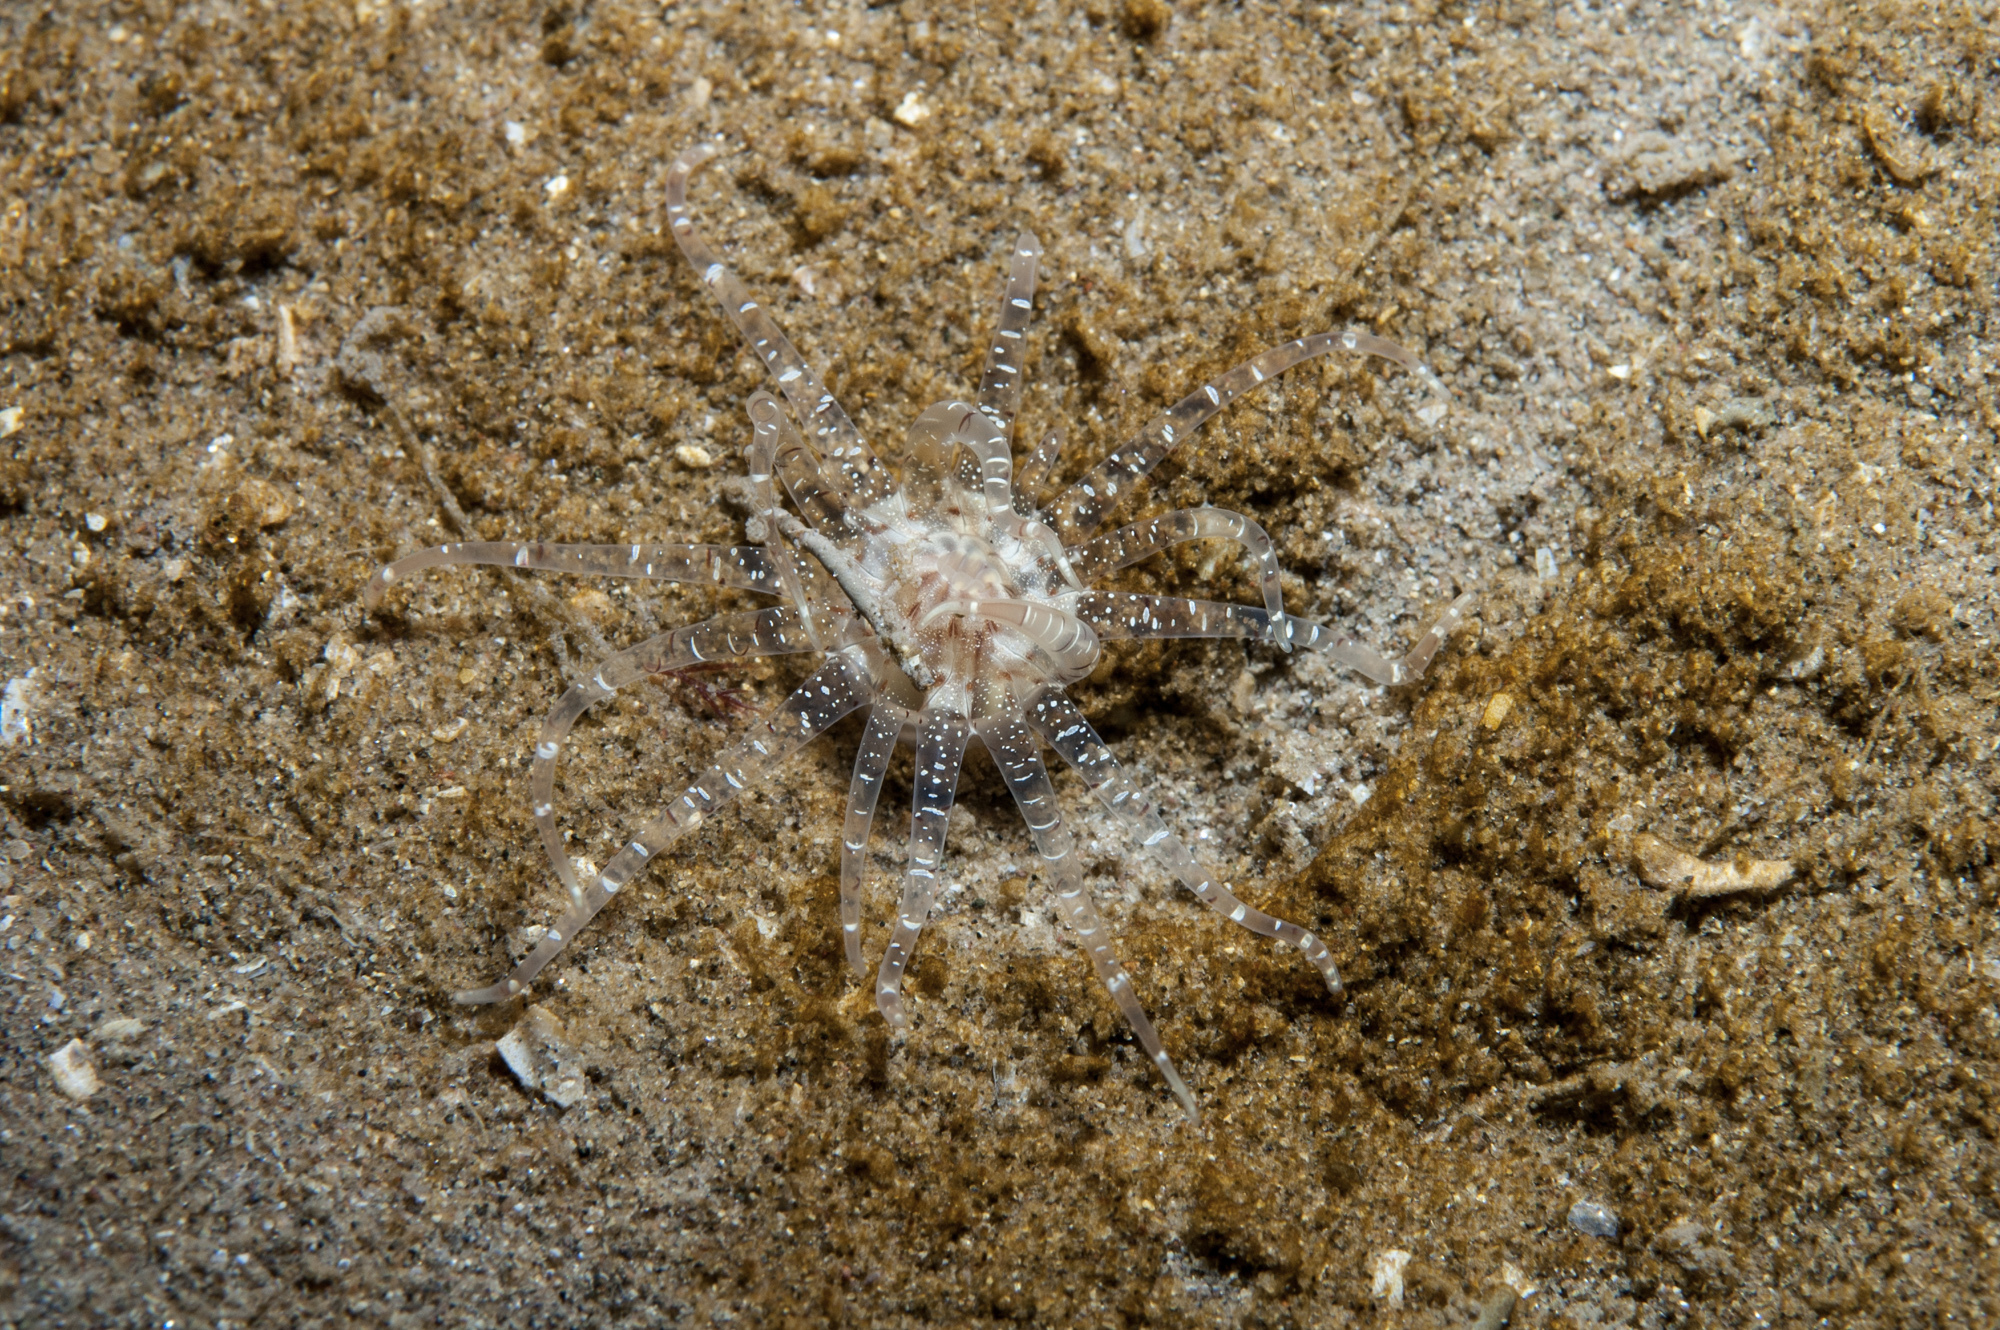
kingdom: Animalia
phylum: Cnidaria
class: Anthozoa
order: Actiniaria
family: Edwardsiidae
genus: Edwardsia
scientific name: Edwardsia claparedii
